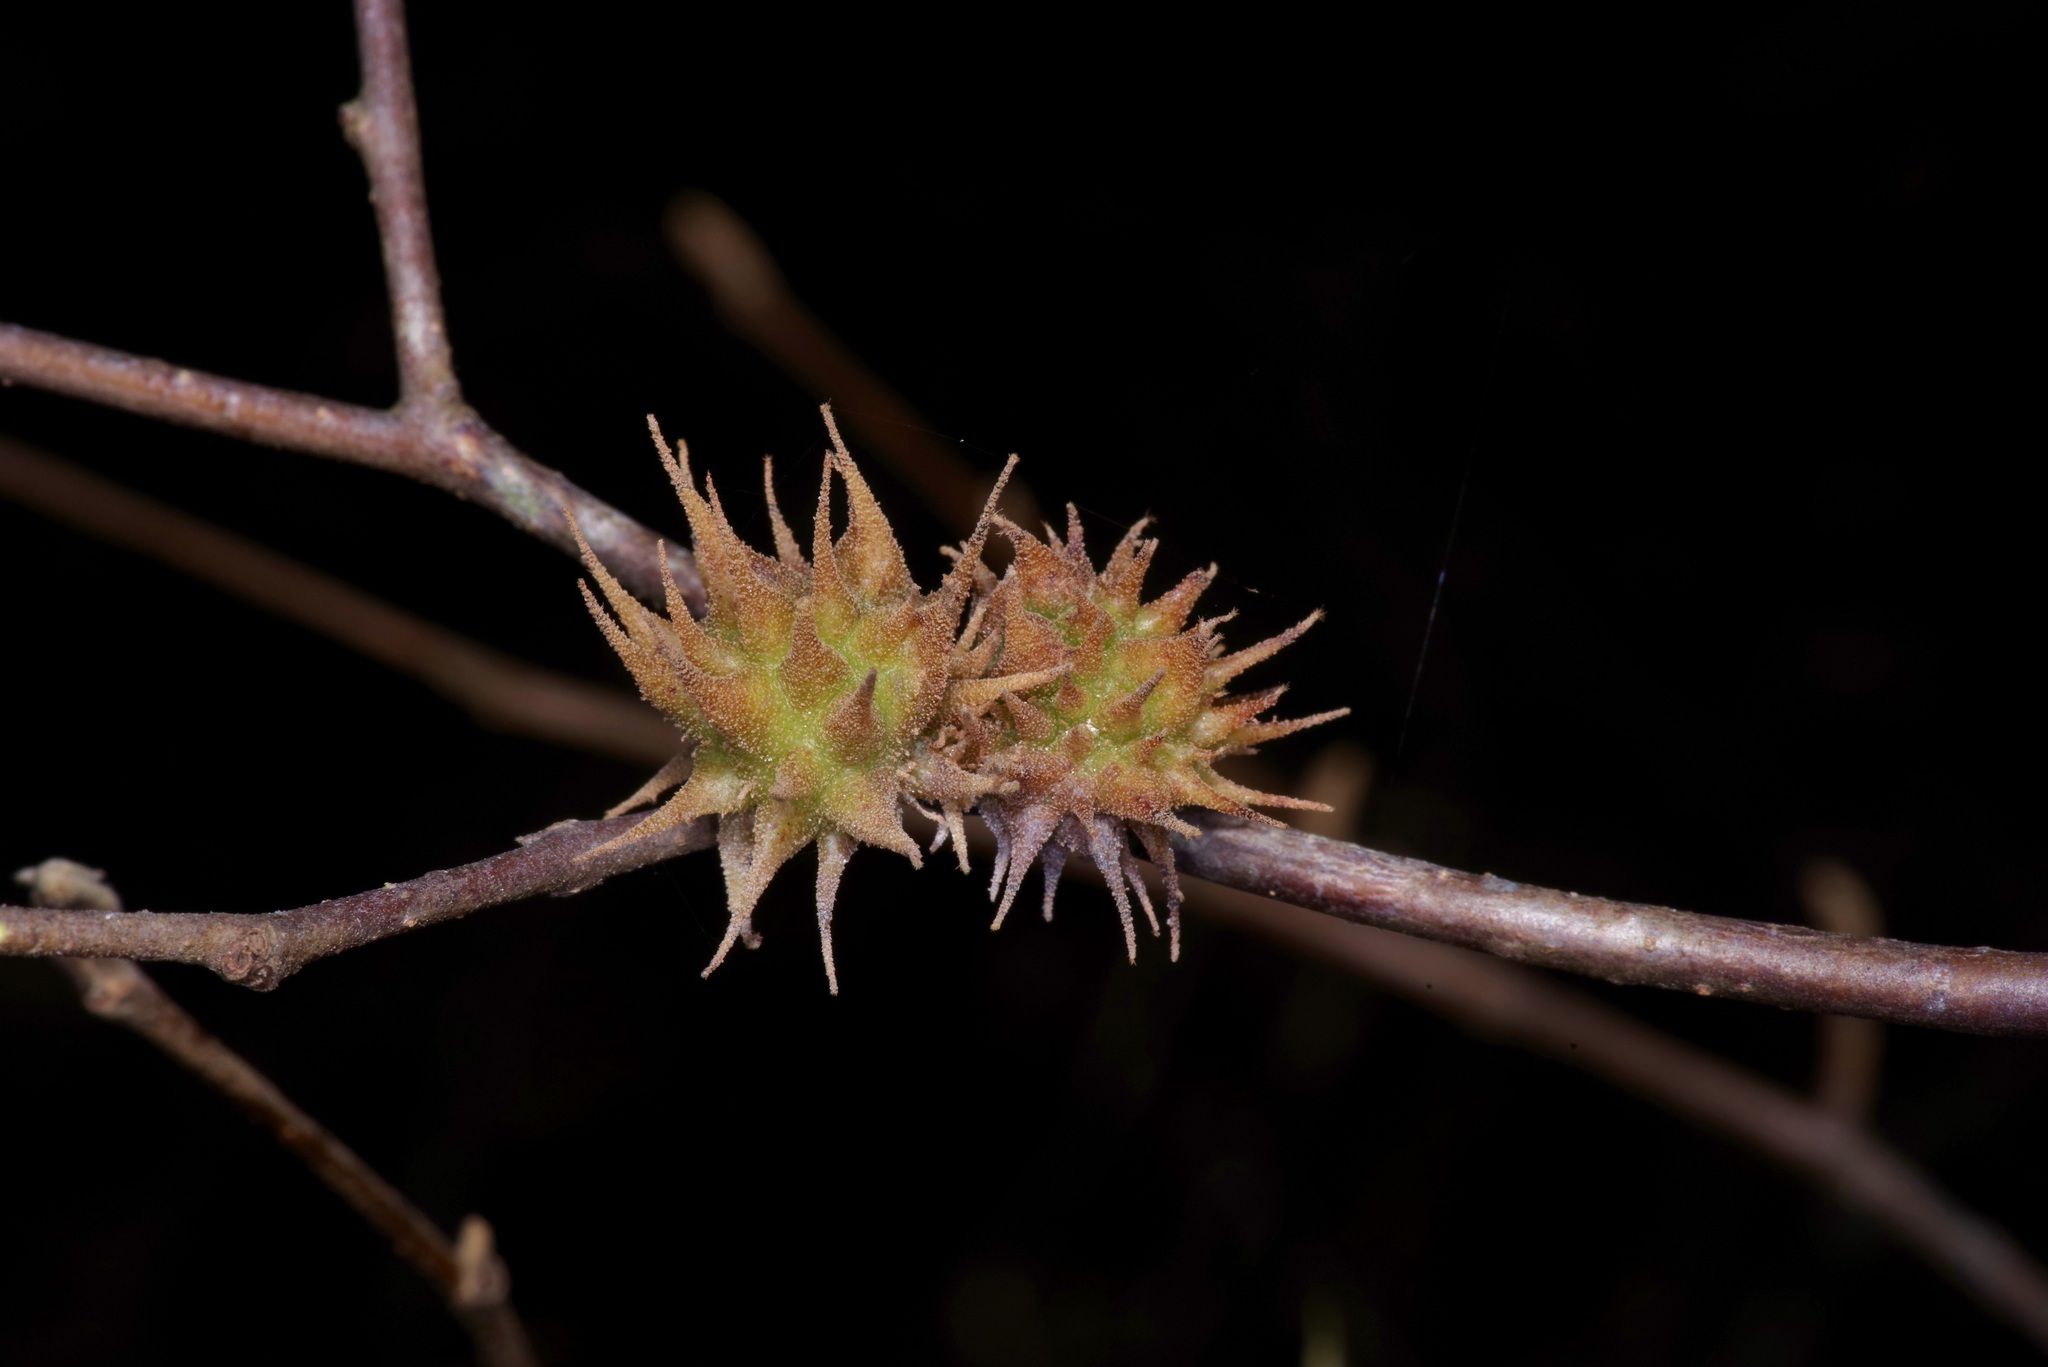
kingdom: Animalia
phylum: Arthropoda
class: Insecta
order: Hemiptera
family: Aphididae
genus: Hamamelistes
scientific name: Hamamelistes spinosus
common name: Witch hazel gall aphid
